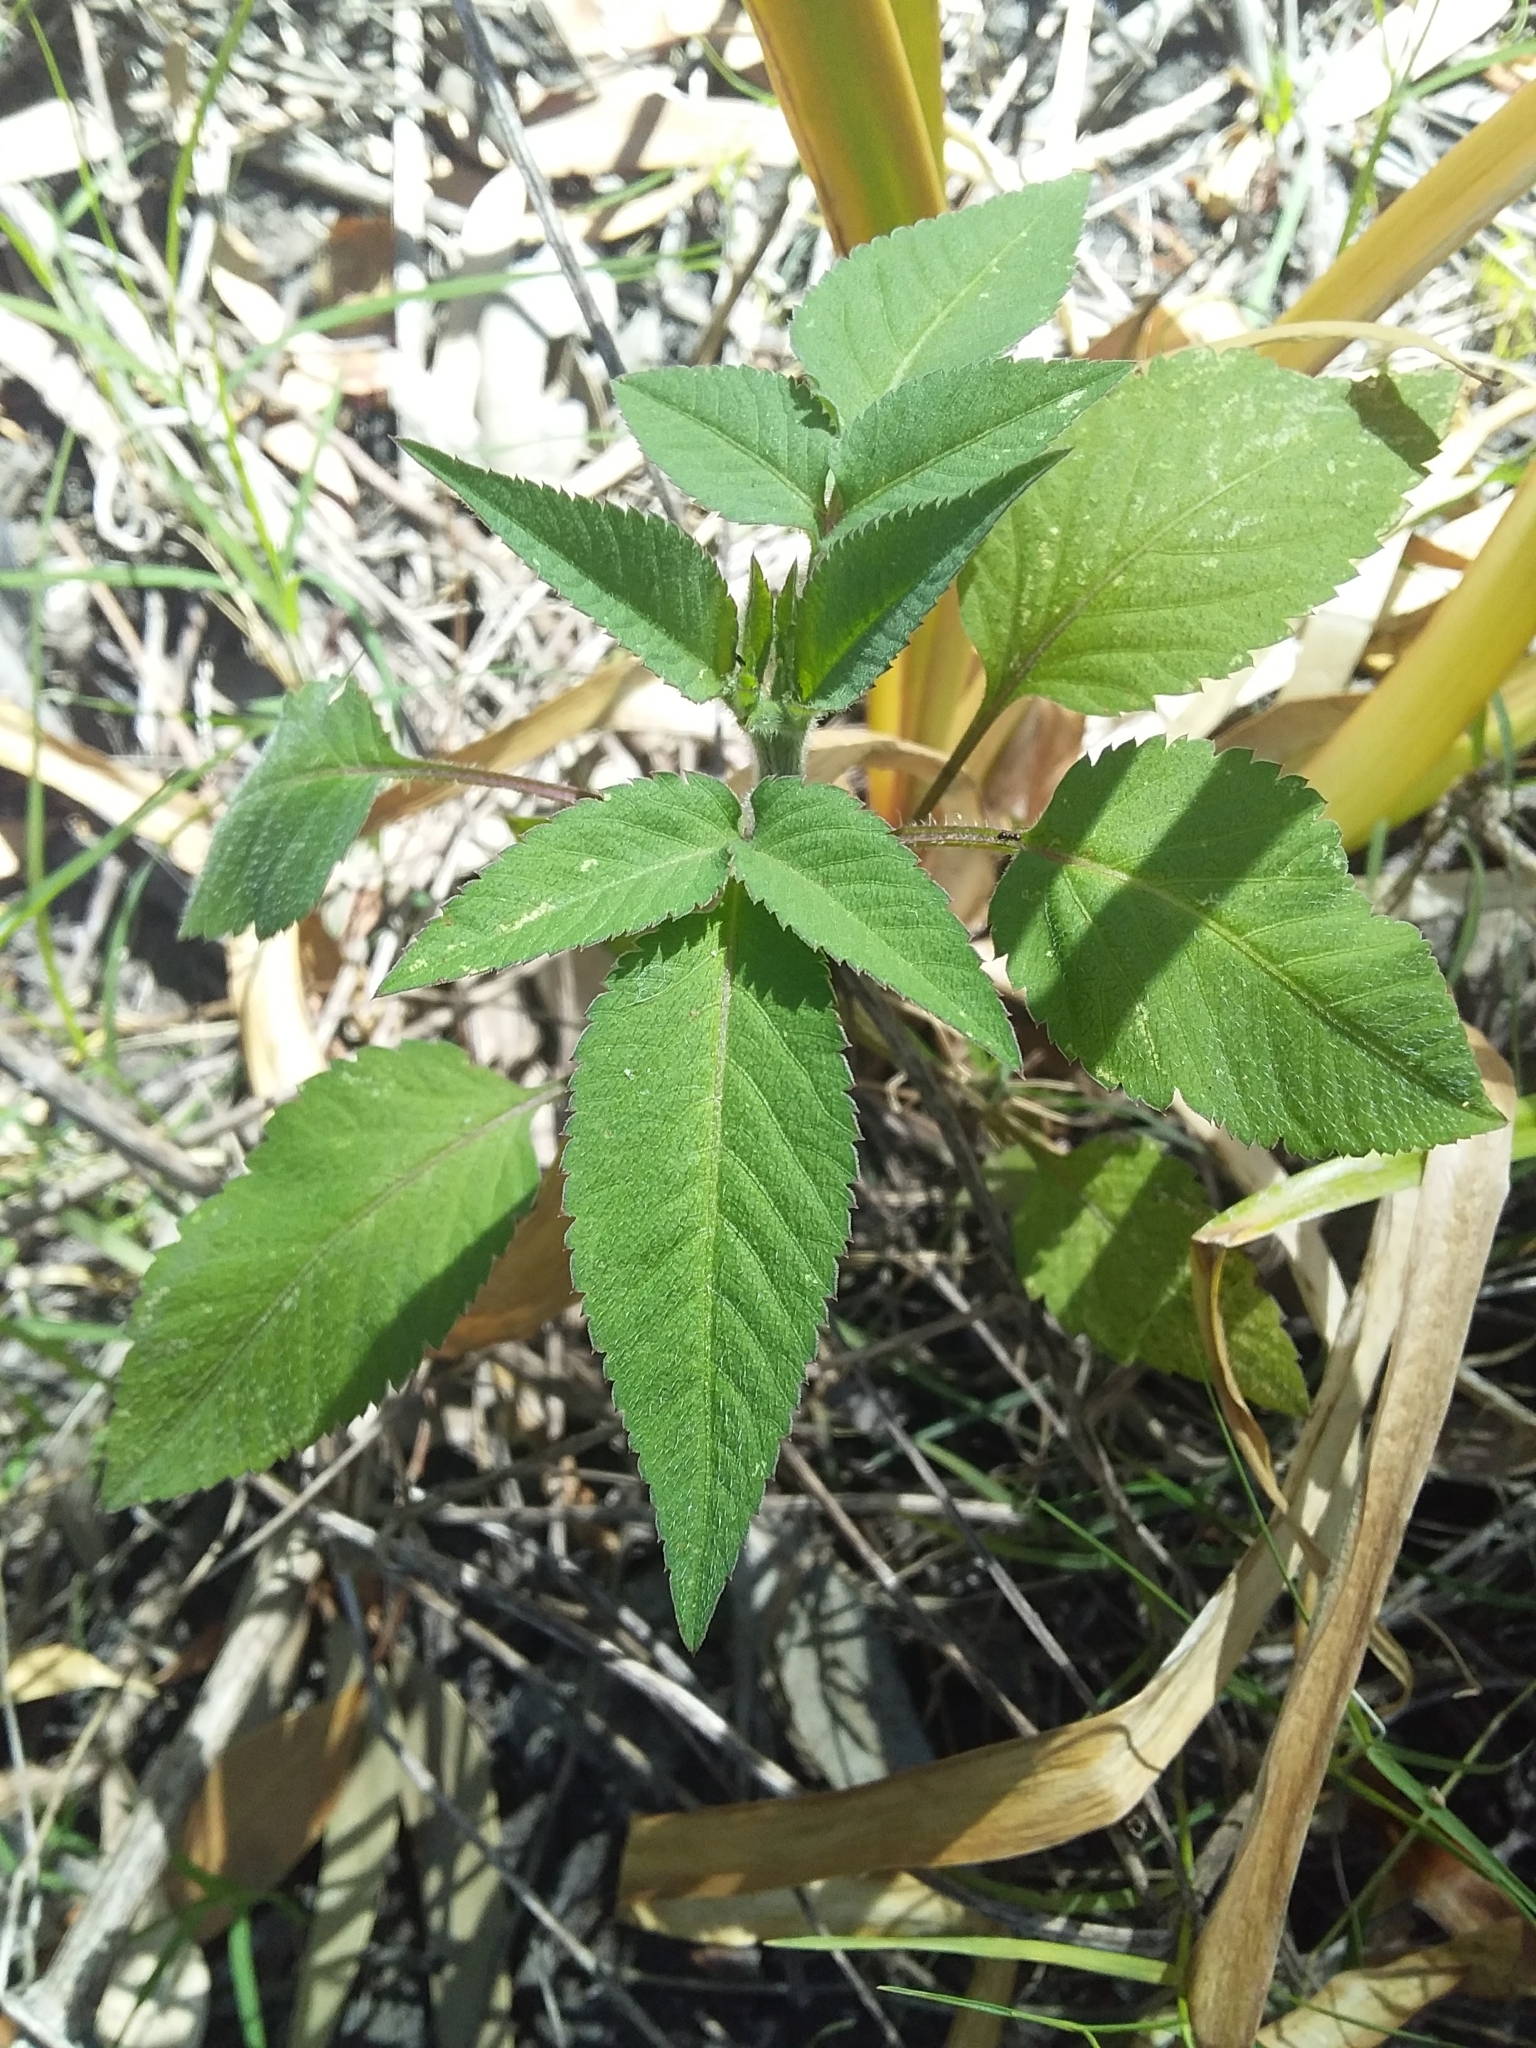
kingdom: Plantae
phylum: Tracheophyta
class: Magnoliopsida
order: Asterales
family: Asteraceae
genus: Bidens
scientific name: Bidens pilosa
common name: Black-jack
